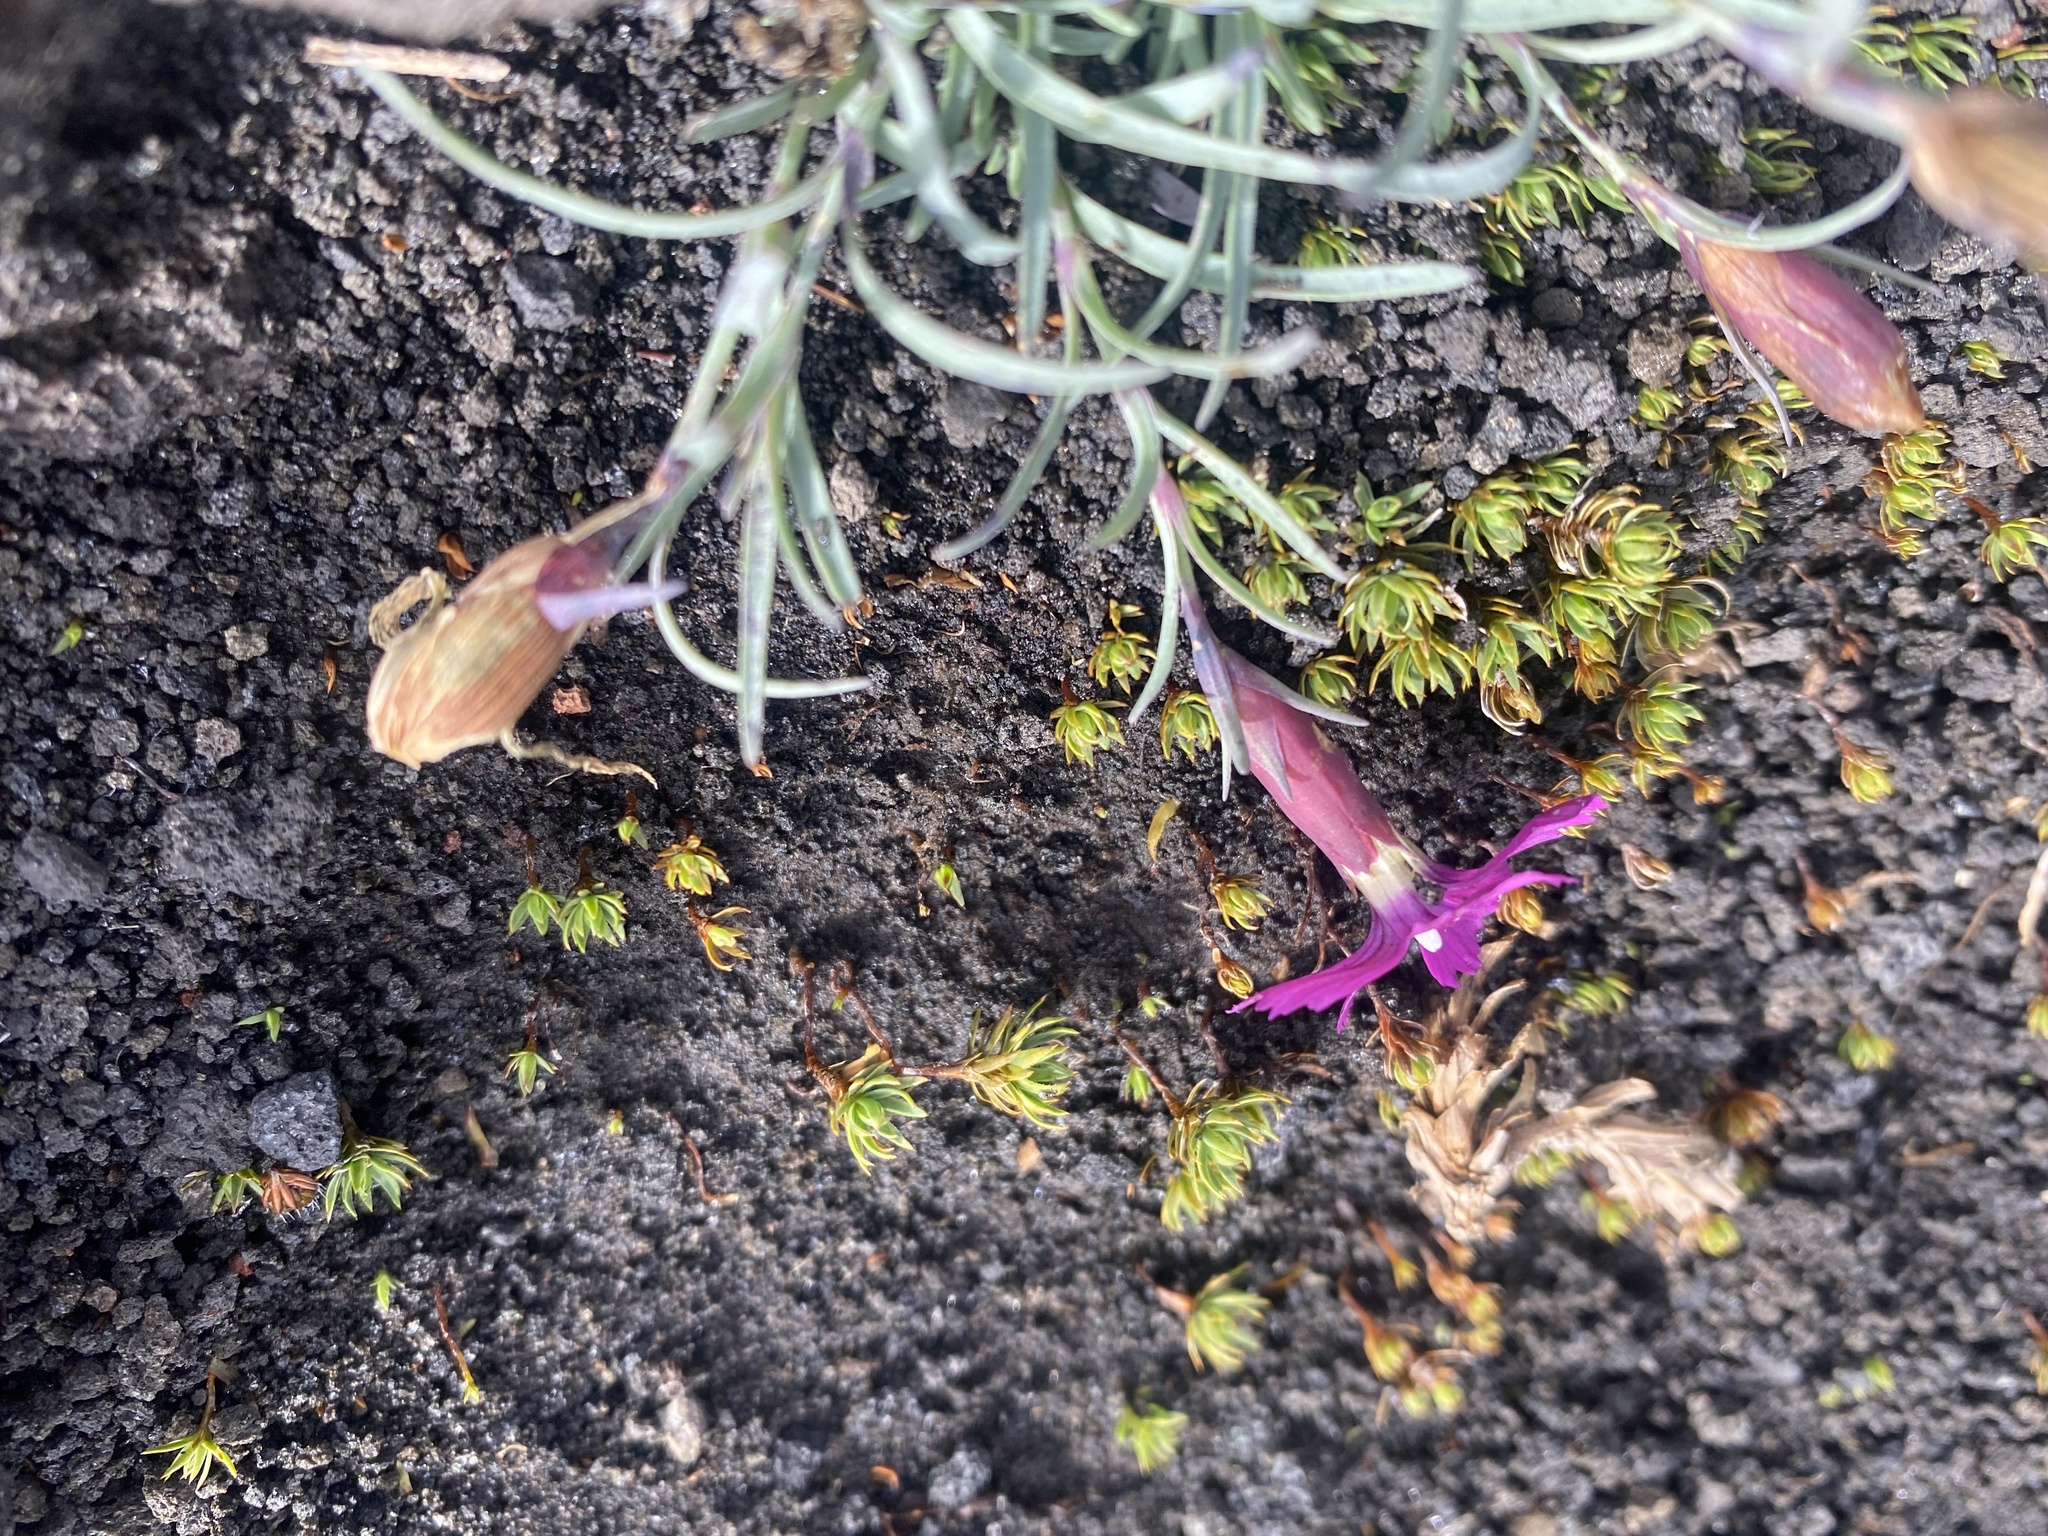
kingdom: Plantae
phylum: Tracheophyta
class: Magnoliopsida
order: Caryophyllales
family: Caryophyllaceae
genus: Dianthus
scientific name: Dianthus repens
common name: Northern pink
